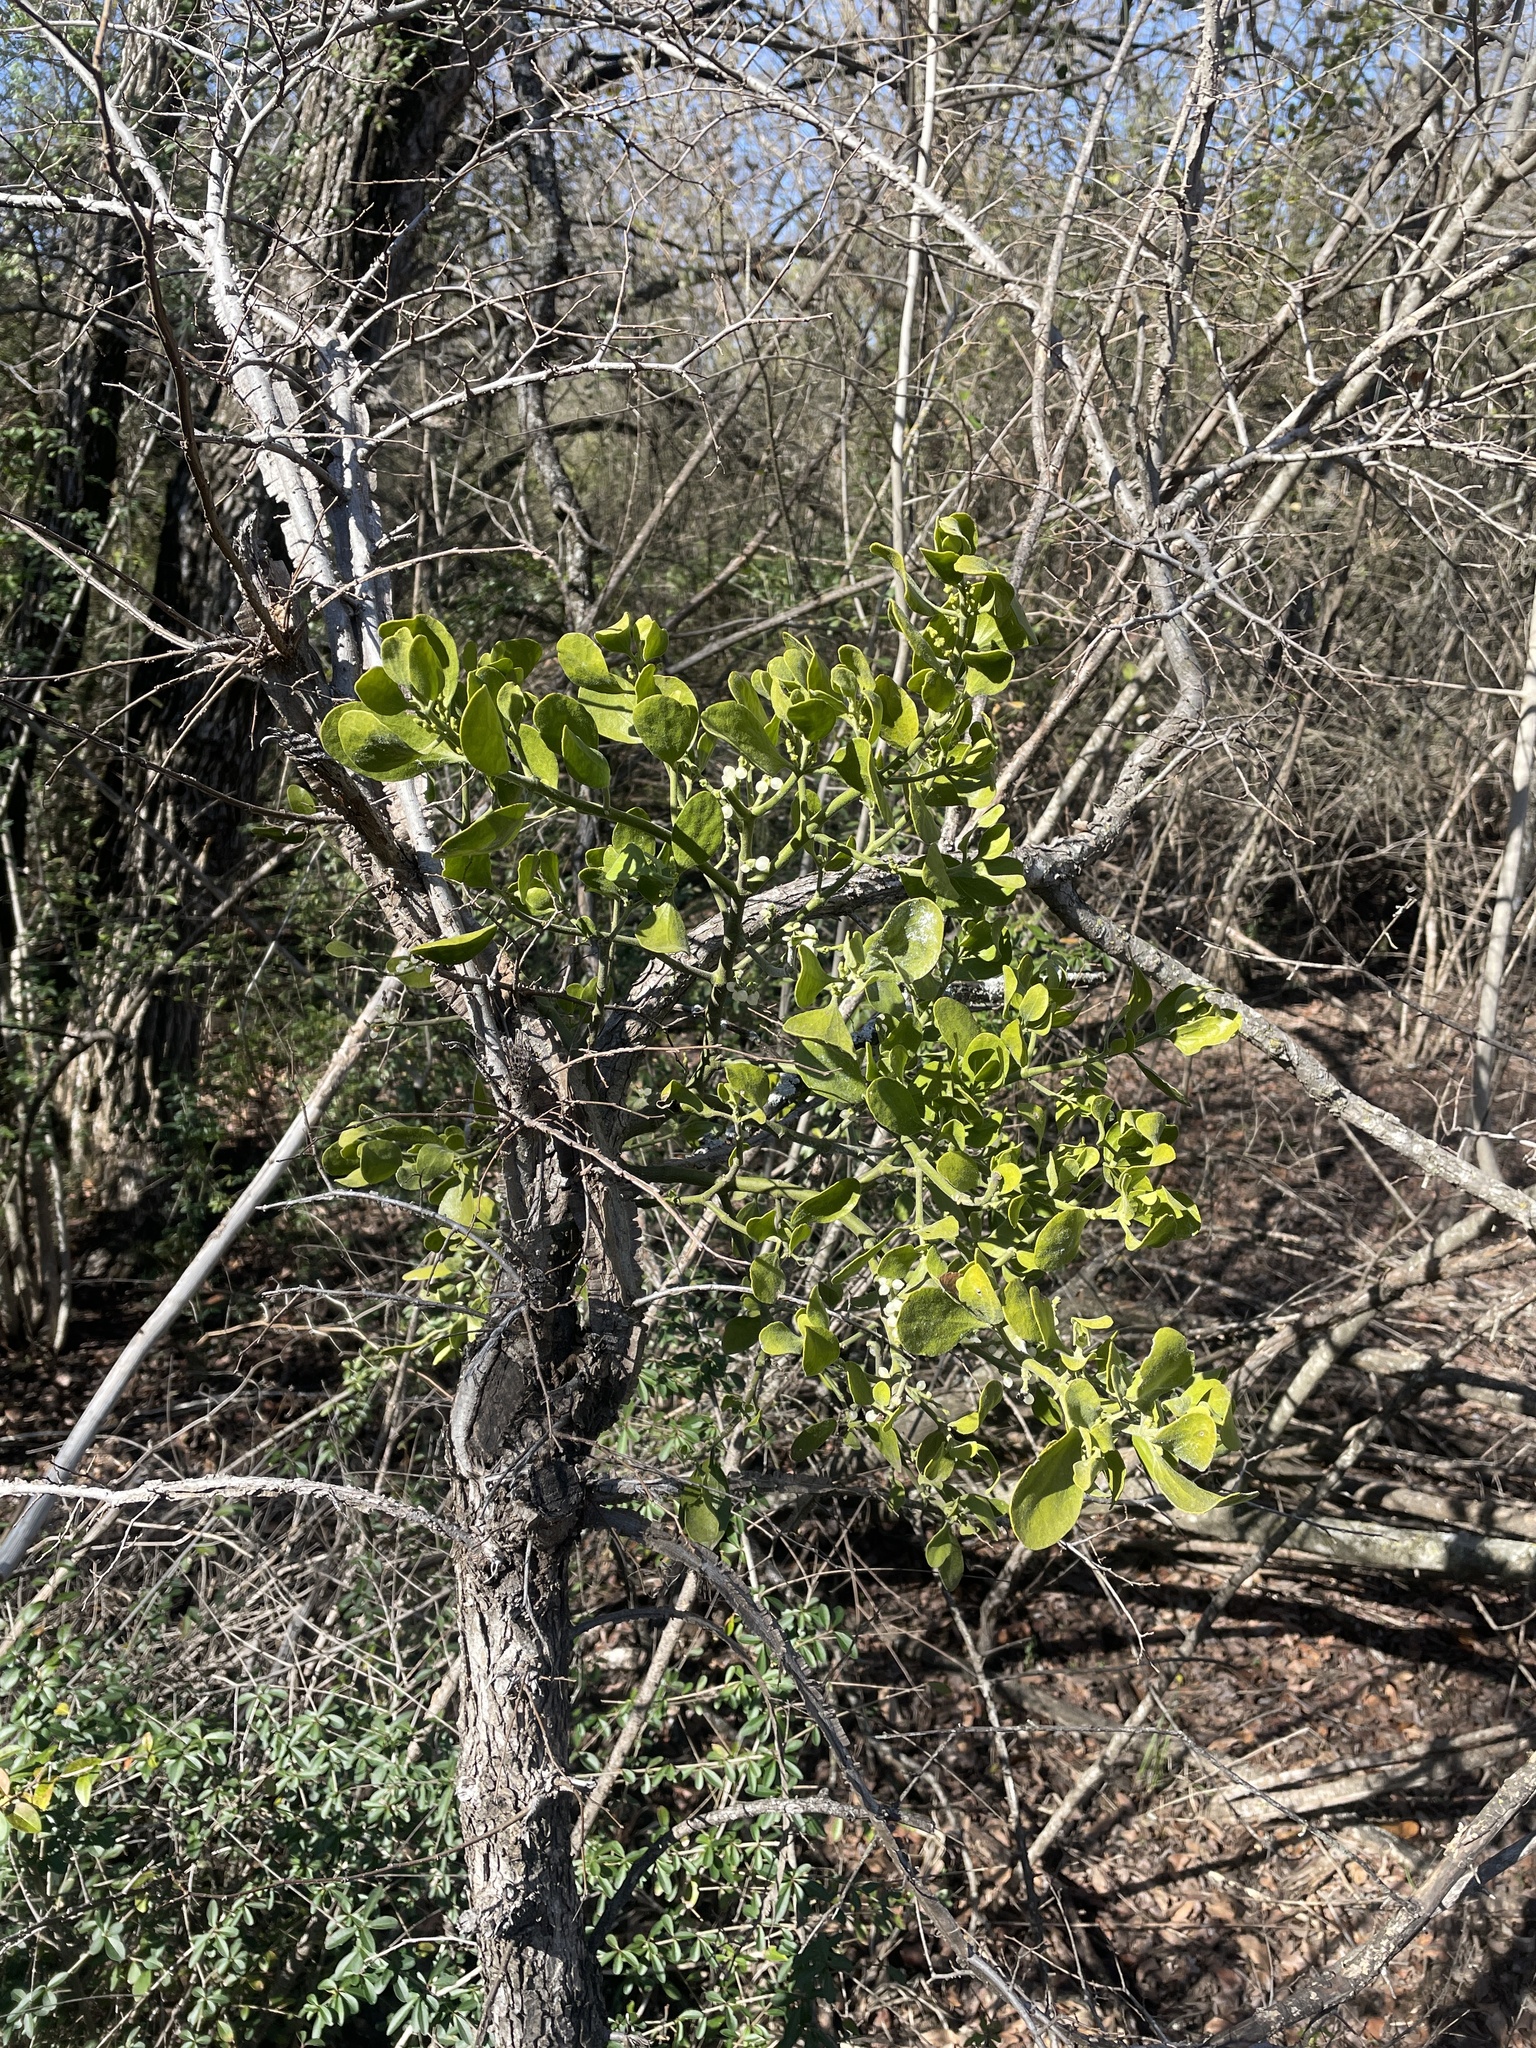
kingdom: Plantae
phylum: Tracheophyta
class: Magnoliopsida
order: Santalales
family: Viscaceae
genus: Phoradendron
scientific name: Phoradendron leucarpum
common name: Pacific mistletoe
